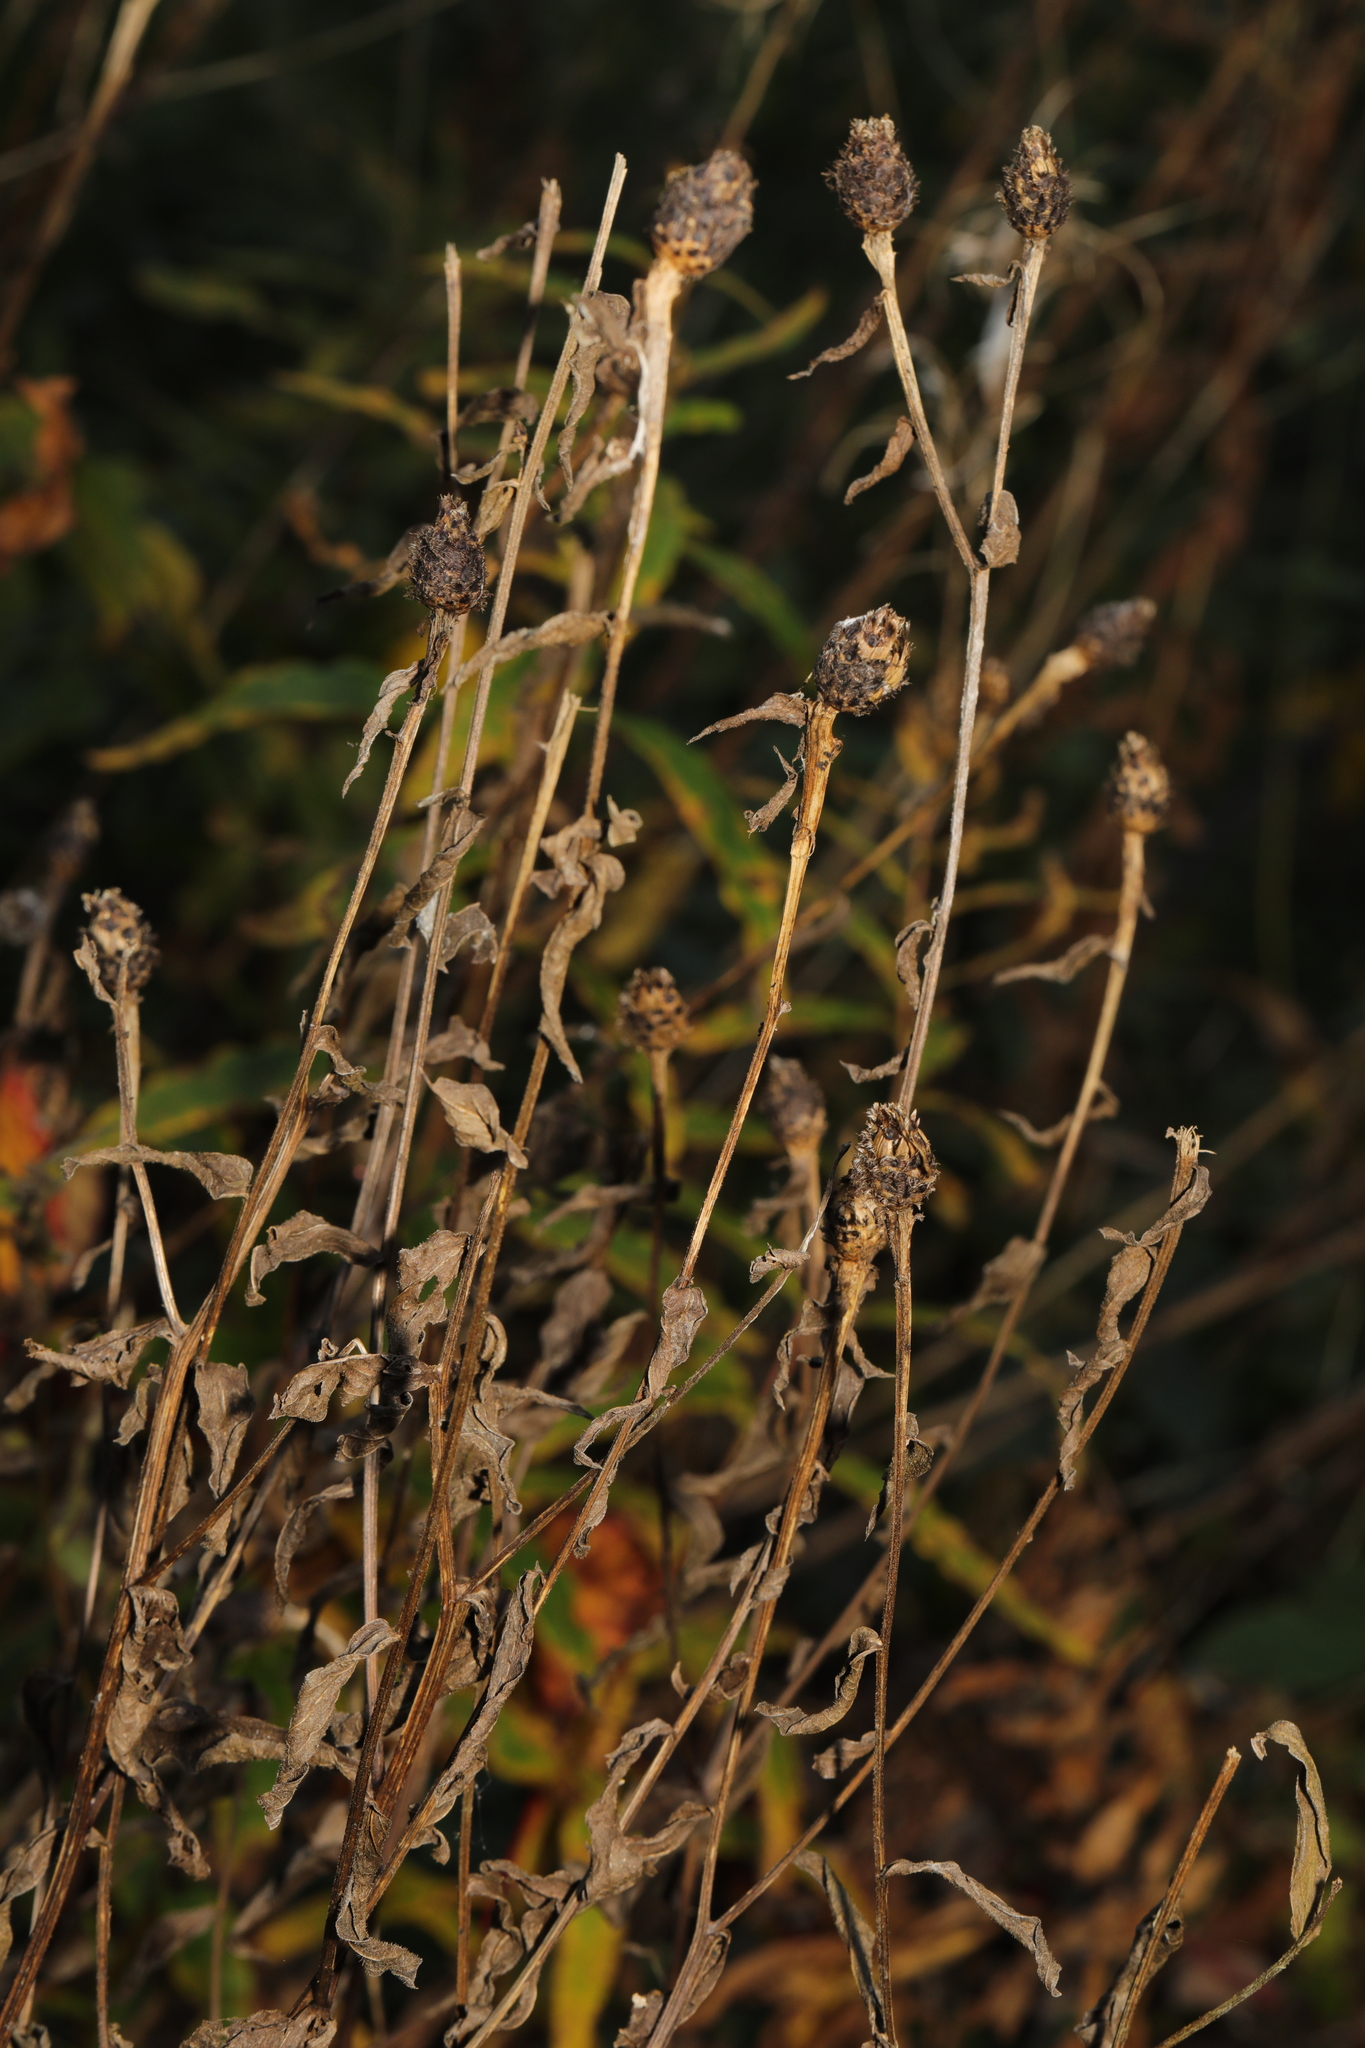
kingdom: Plantae
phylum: Tracheophyta
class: Magnoliopsida
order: Asterales
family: Asteraceae
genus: Centaurea
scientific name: Centaurea nigra
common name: Lesser knapweed
